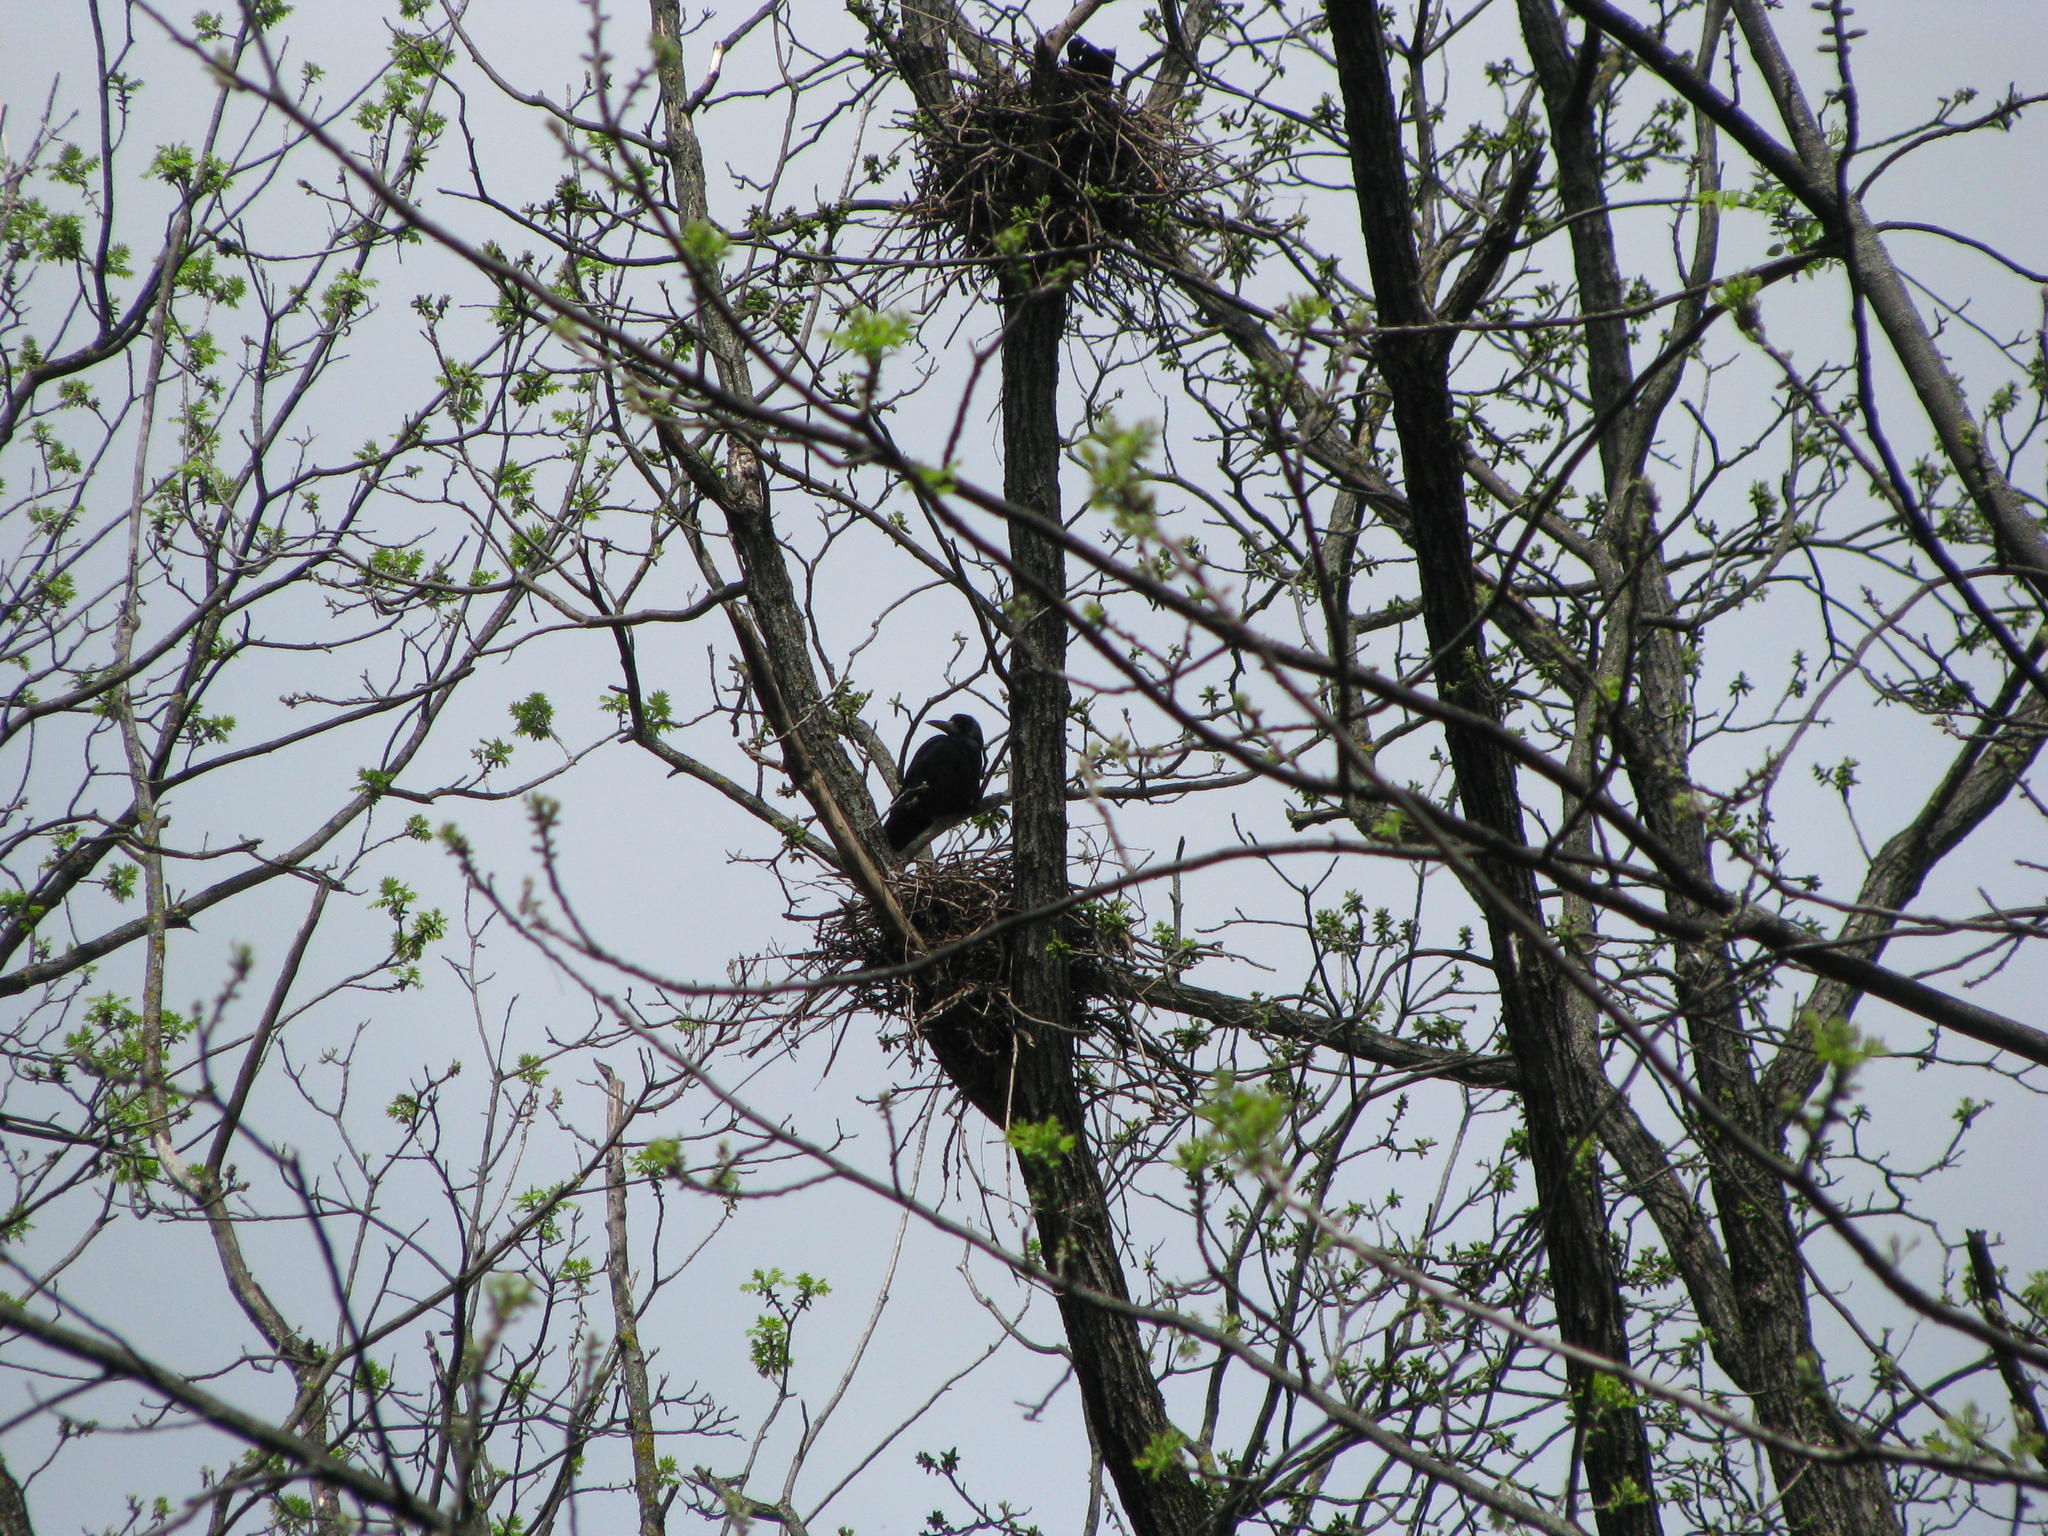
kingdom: Animalia
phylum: Chordata
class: Aves
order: Passeriformes
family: Corvidae
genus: Corvus
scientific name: Corvus frugilegus
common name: Rook
